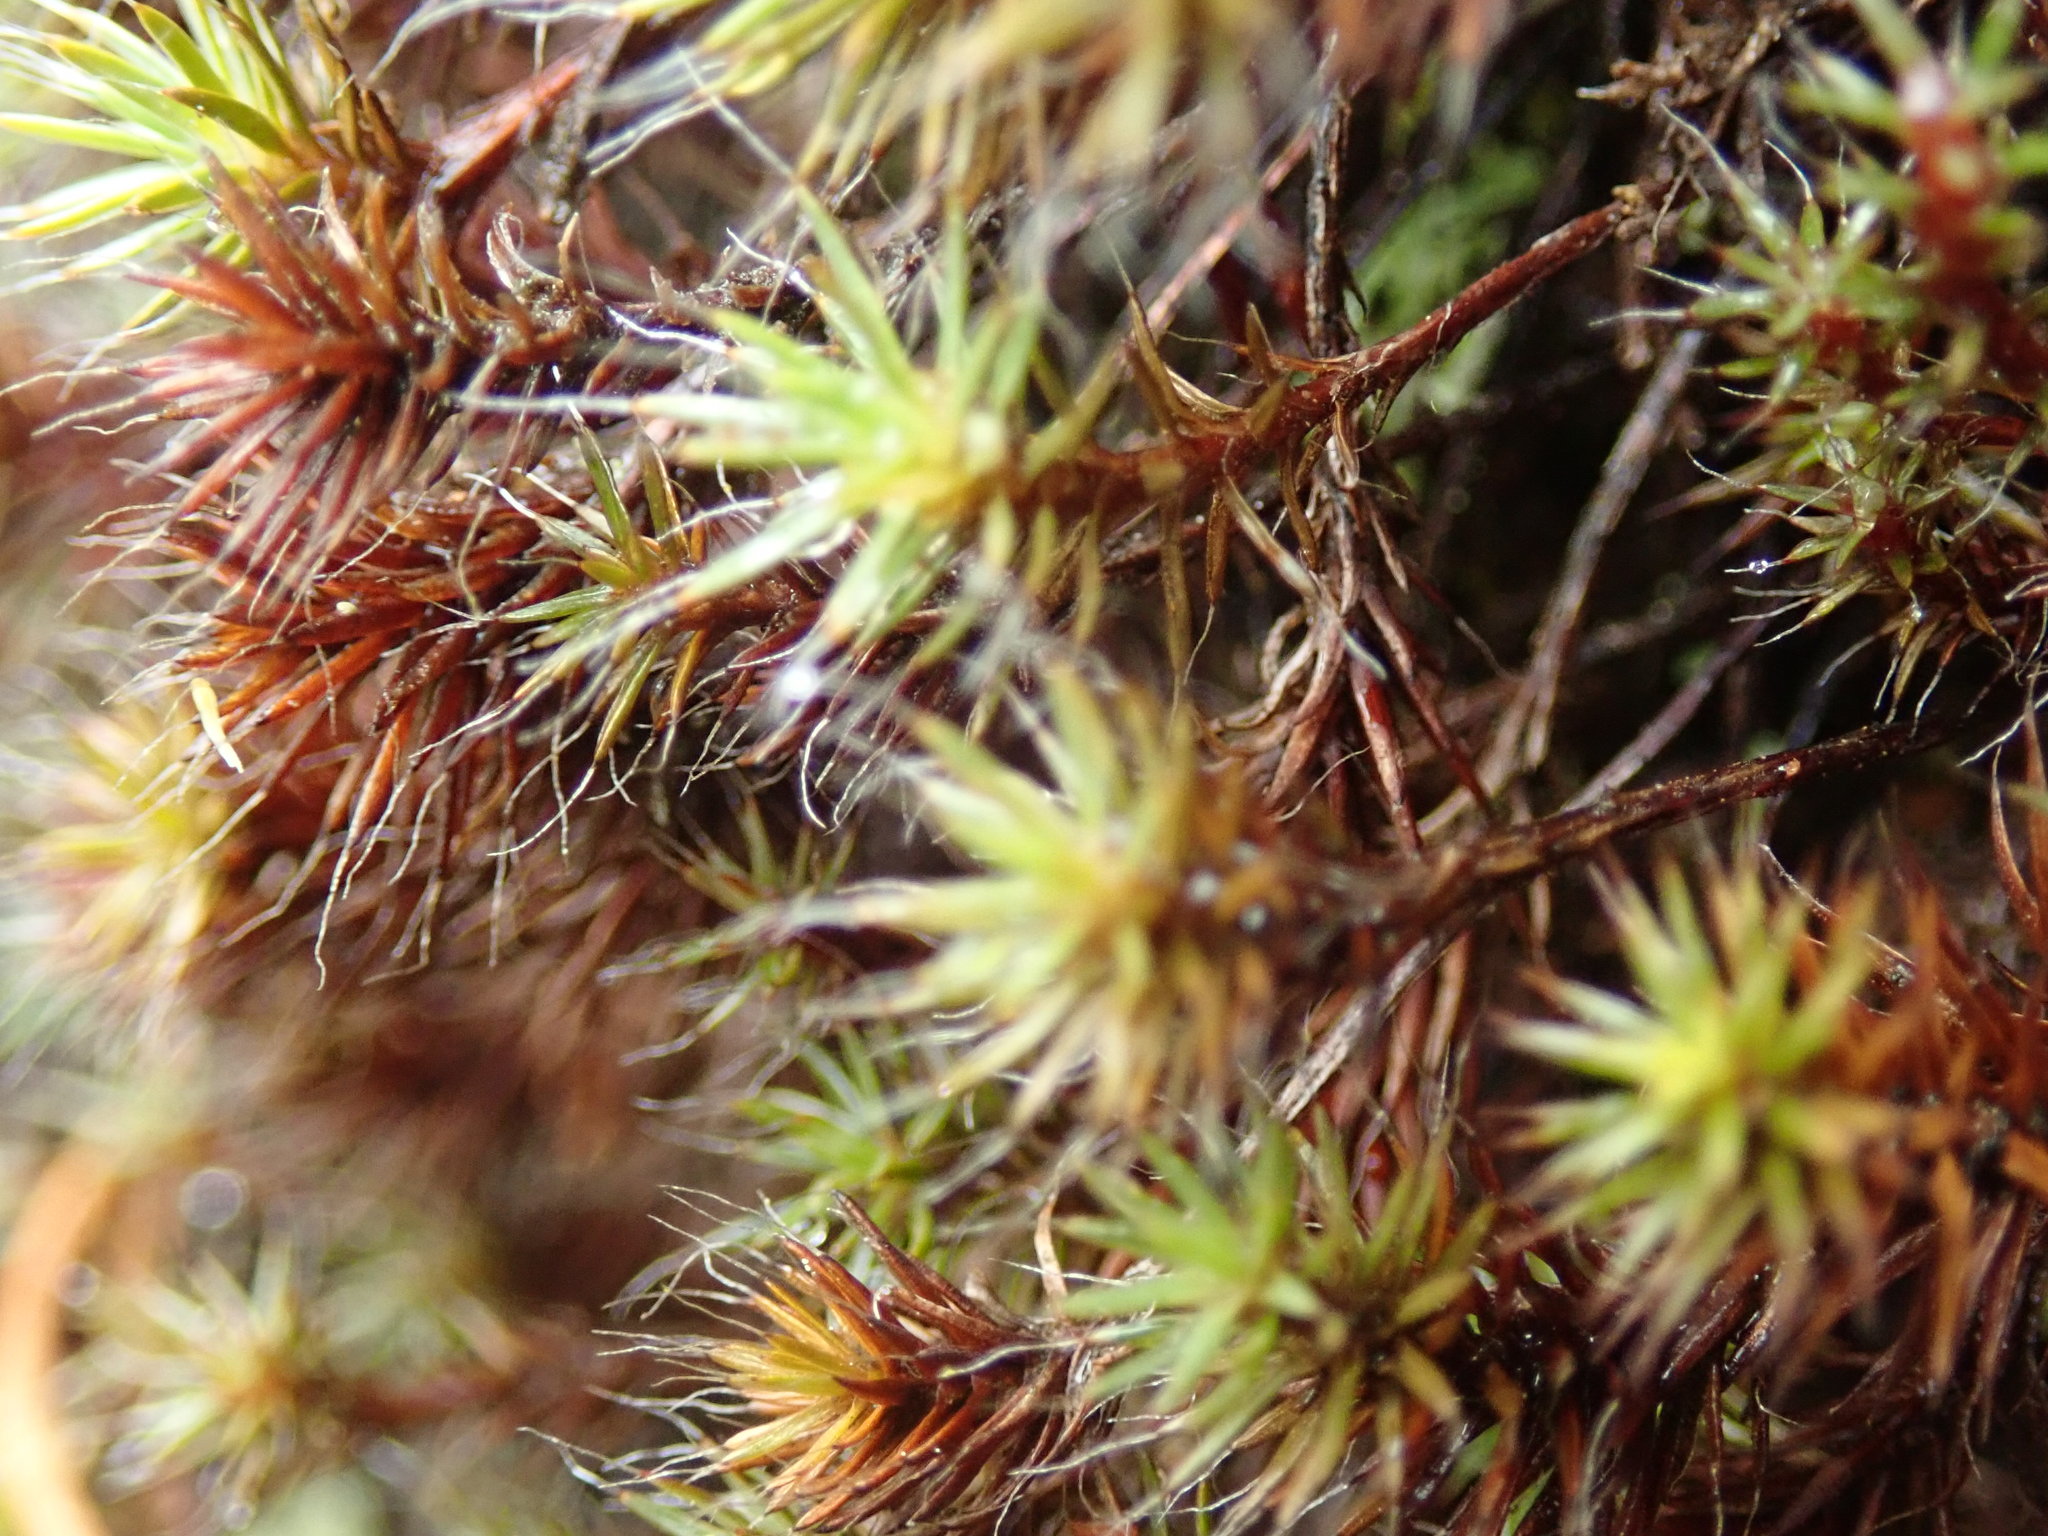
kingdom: Plantae
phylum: Bryophyta
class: Polytrichopsida
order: Polytrichales
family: Polytrichaceae
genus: Polytrichum
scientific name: Polytrichum piliferum
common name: Bristly haircap
